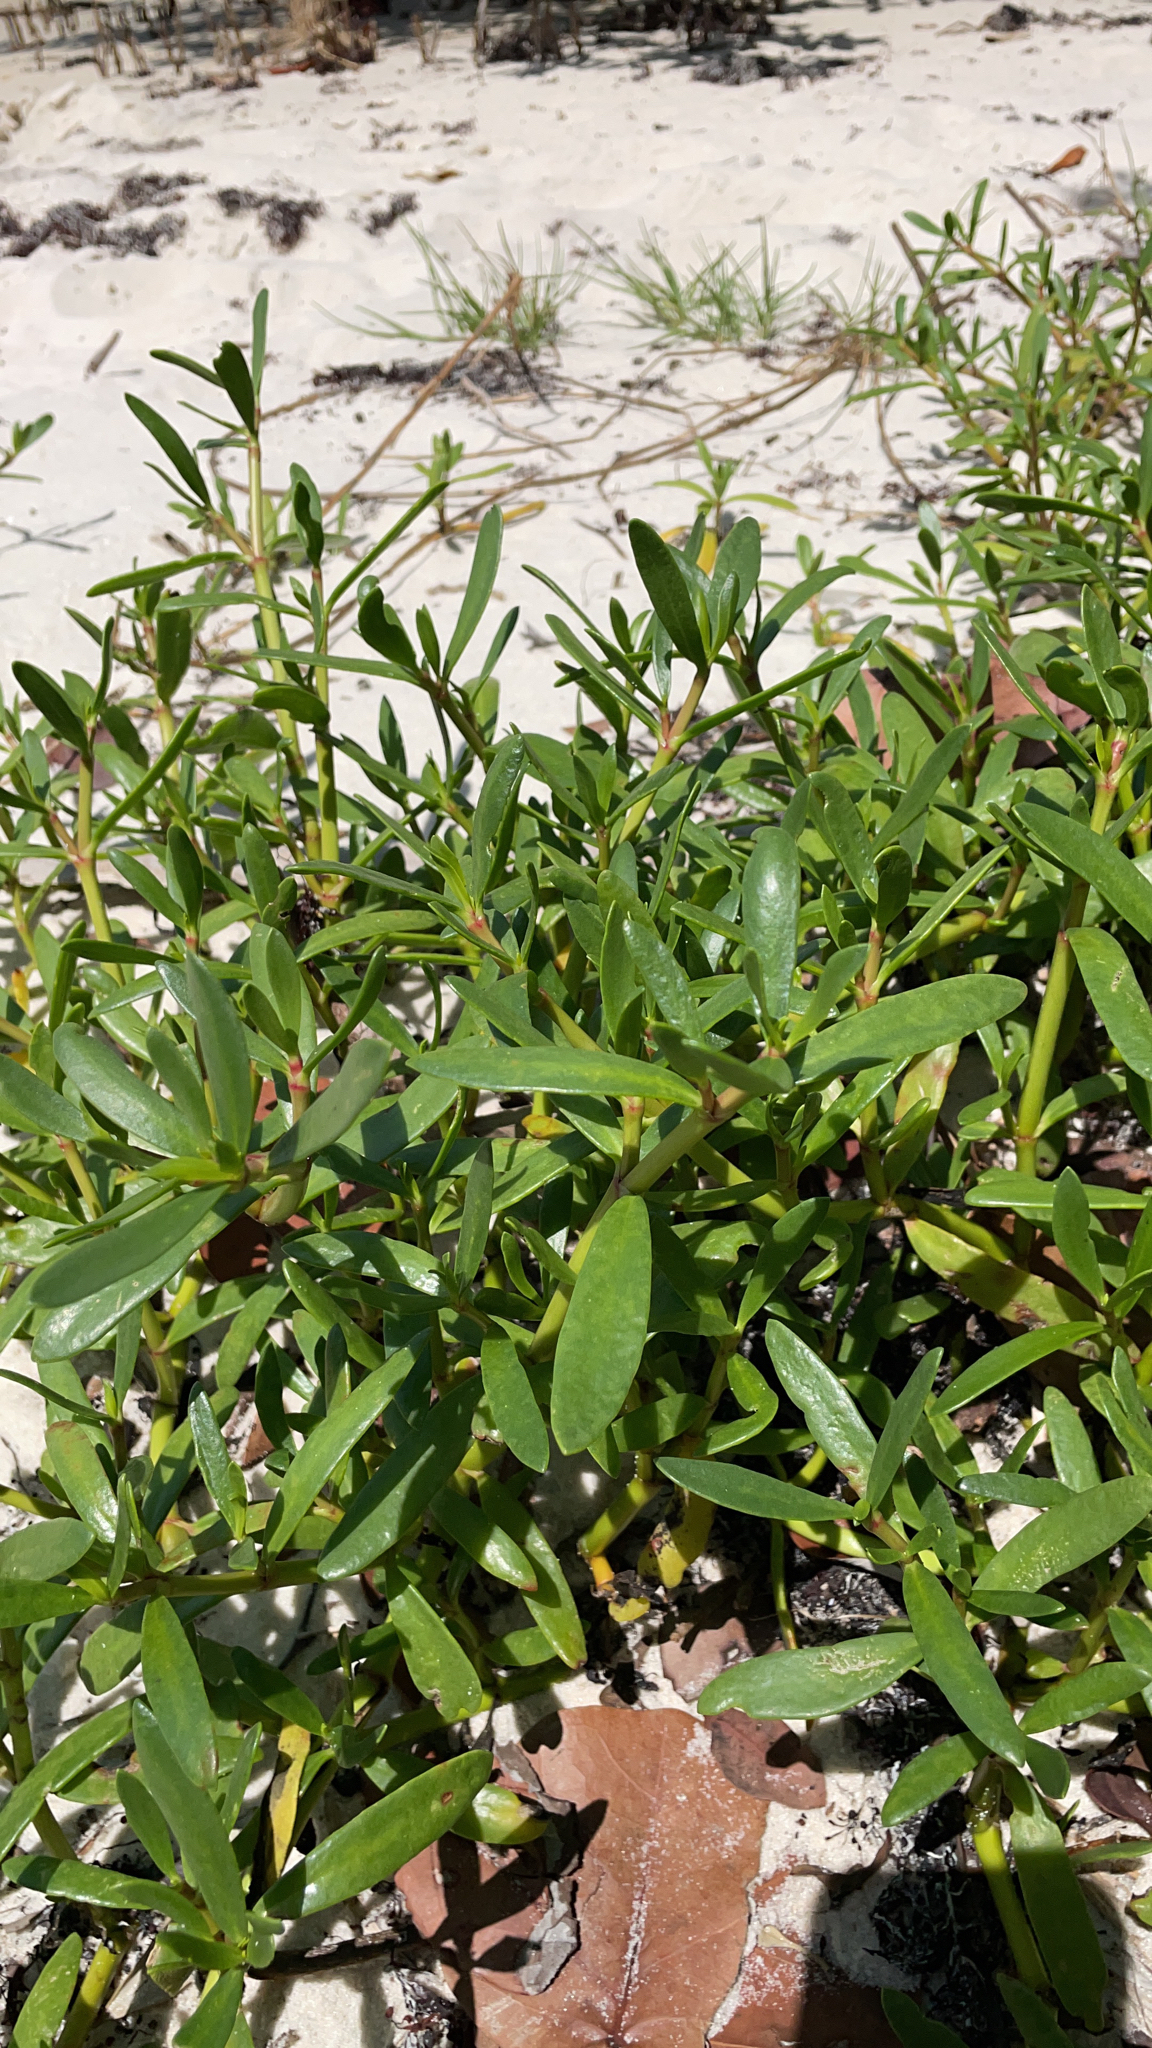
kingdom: Plantae
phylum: Tracheophyta
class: Magnoliopsida
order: Caryophyllales
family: Aizoaceae
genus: Sesuvium
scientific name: Sesuvium portulacastrum
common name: Sea-purslane
